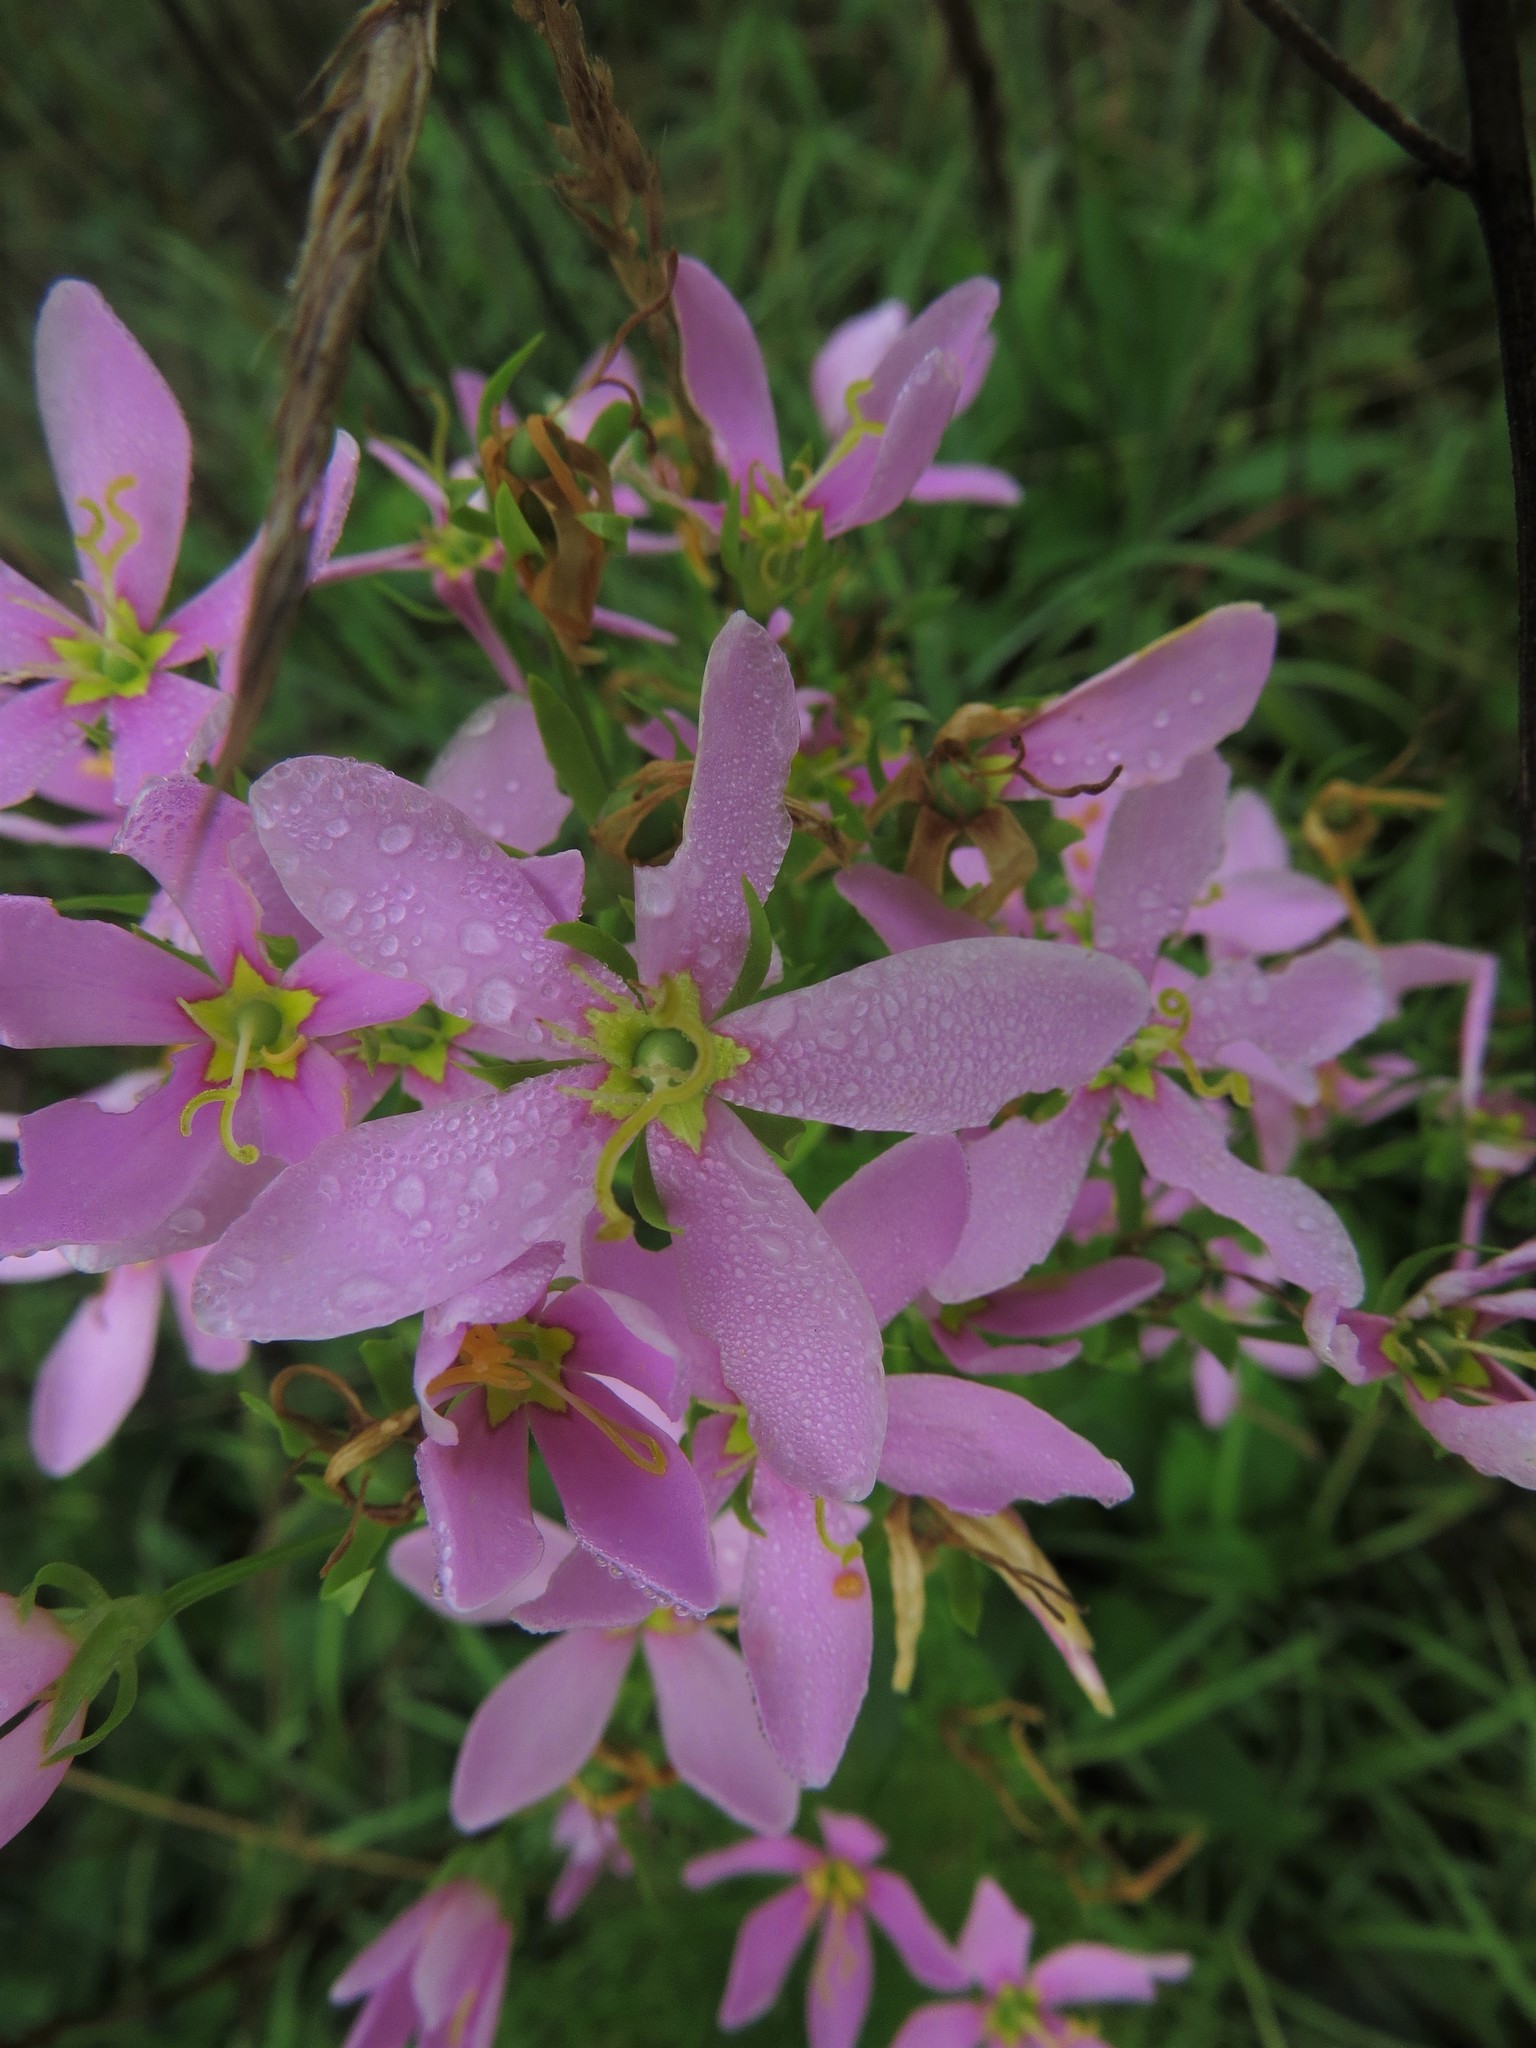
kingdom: Plantae
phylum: Tracheophyta
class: Magnoliopsida
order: Gentianales
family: Gentianaceae
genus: Sabatia
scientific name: Sabatia angularis
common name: Rose-pink
